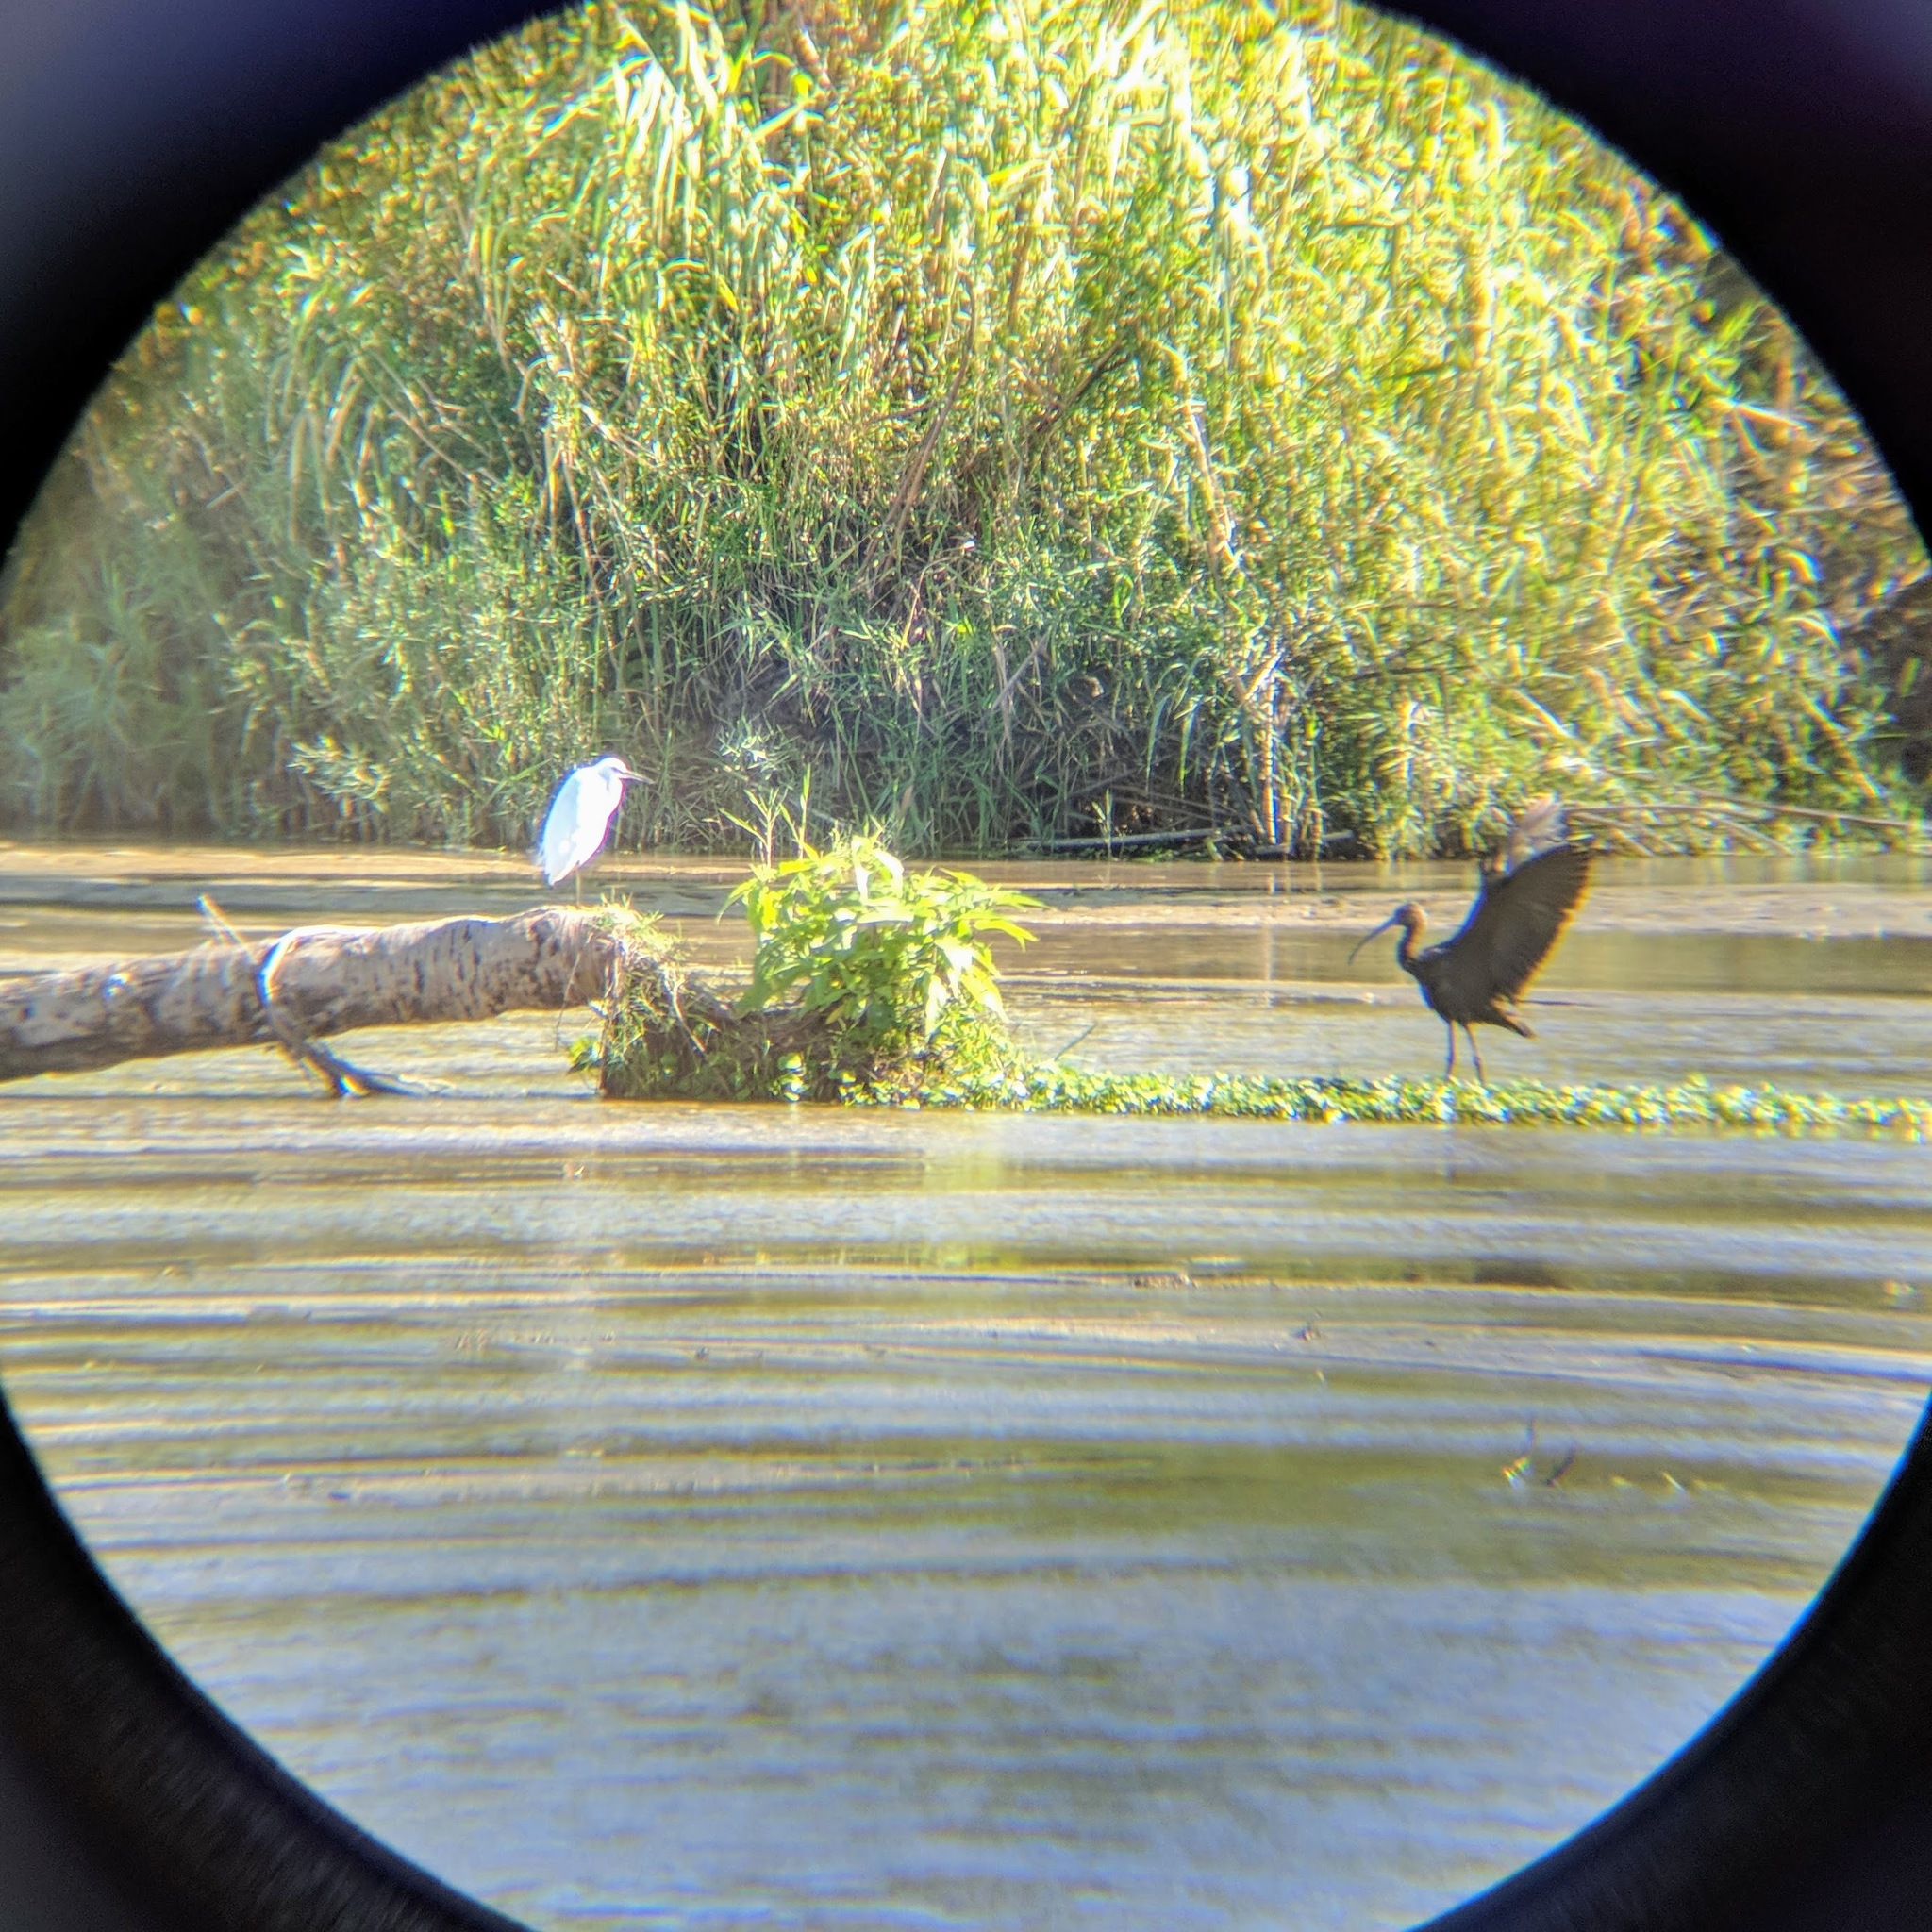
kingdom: Animalia
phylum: Chordata
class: Aves
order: Pelecaniformes
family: Threskiornithidae
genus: Plegadis
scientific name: Plegadis chihi
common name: White-faced ibis
